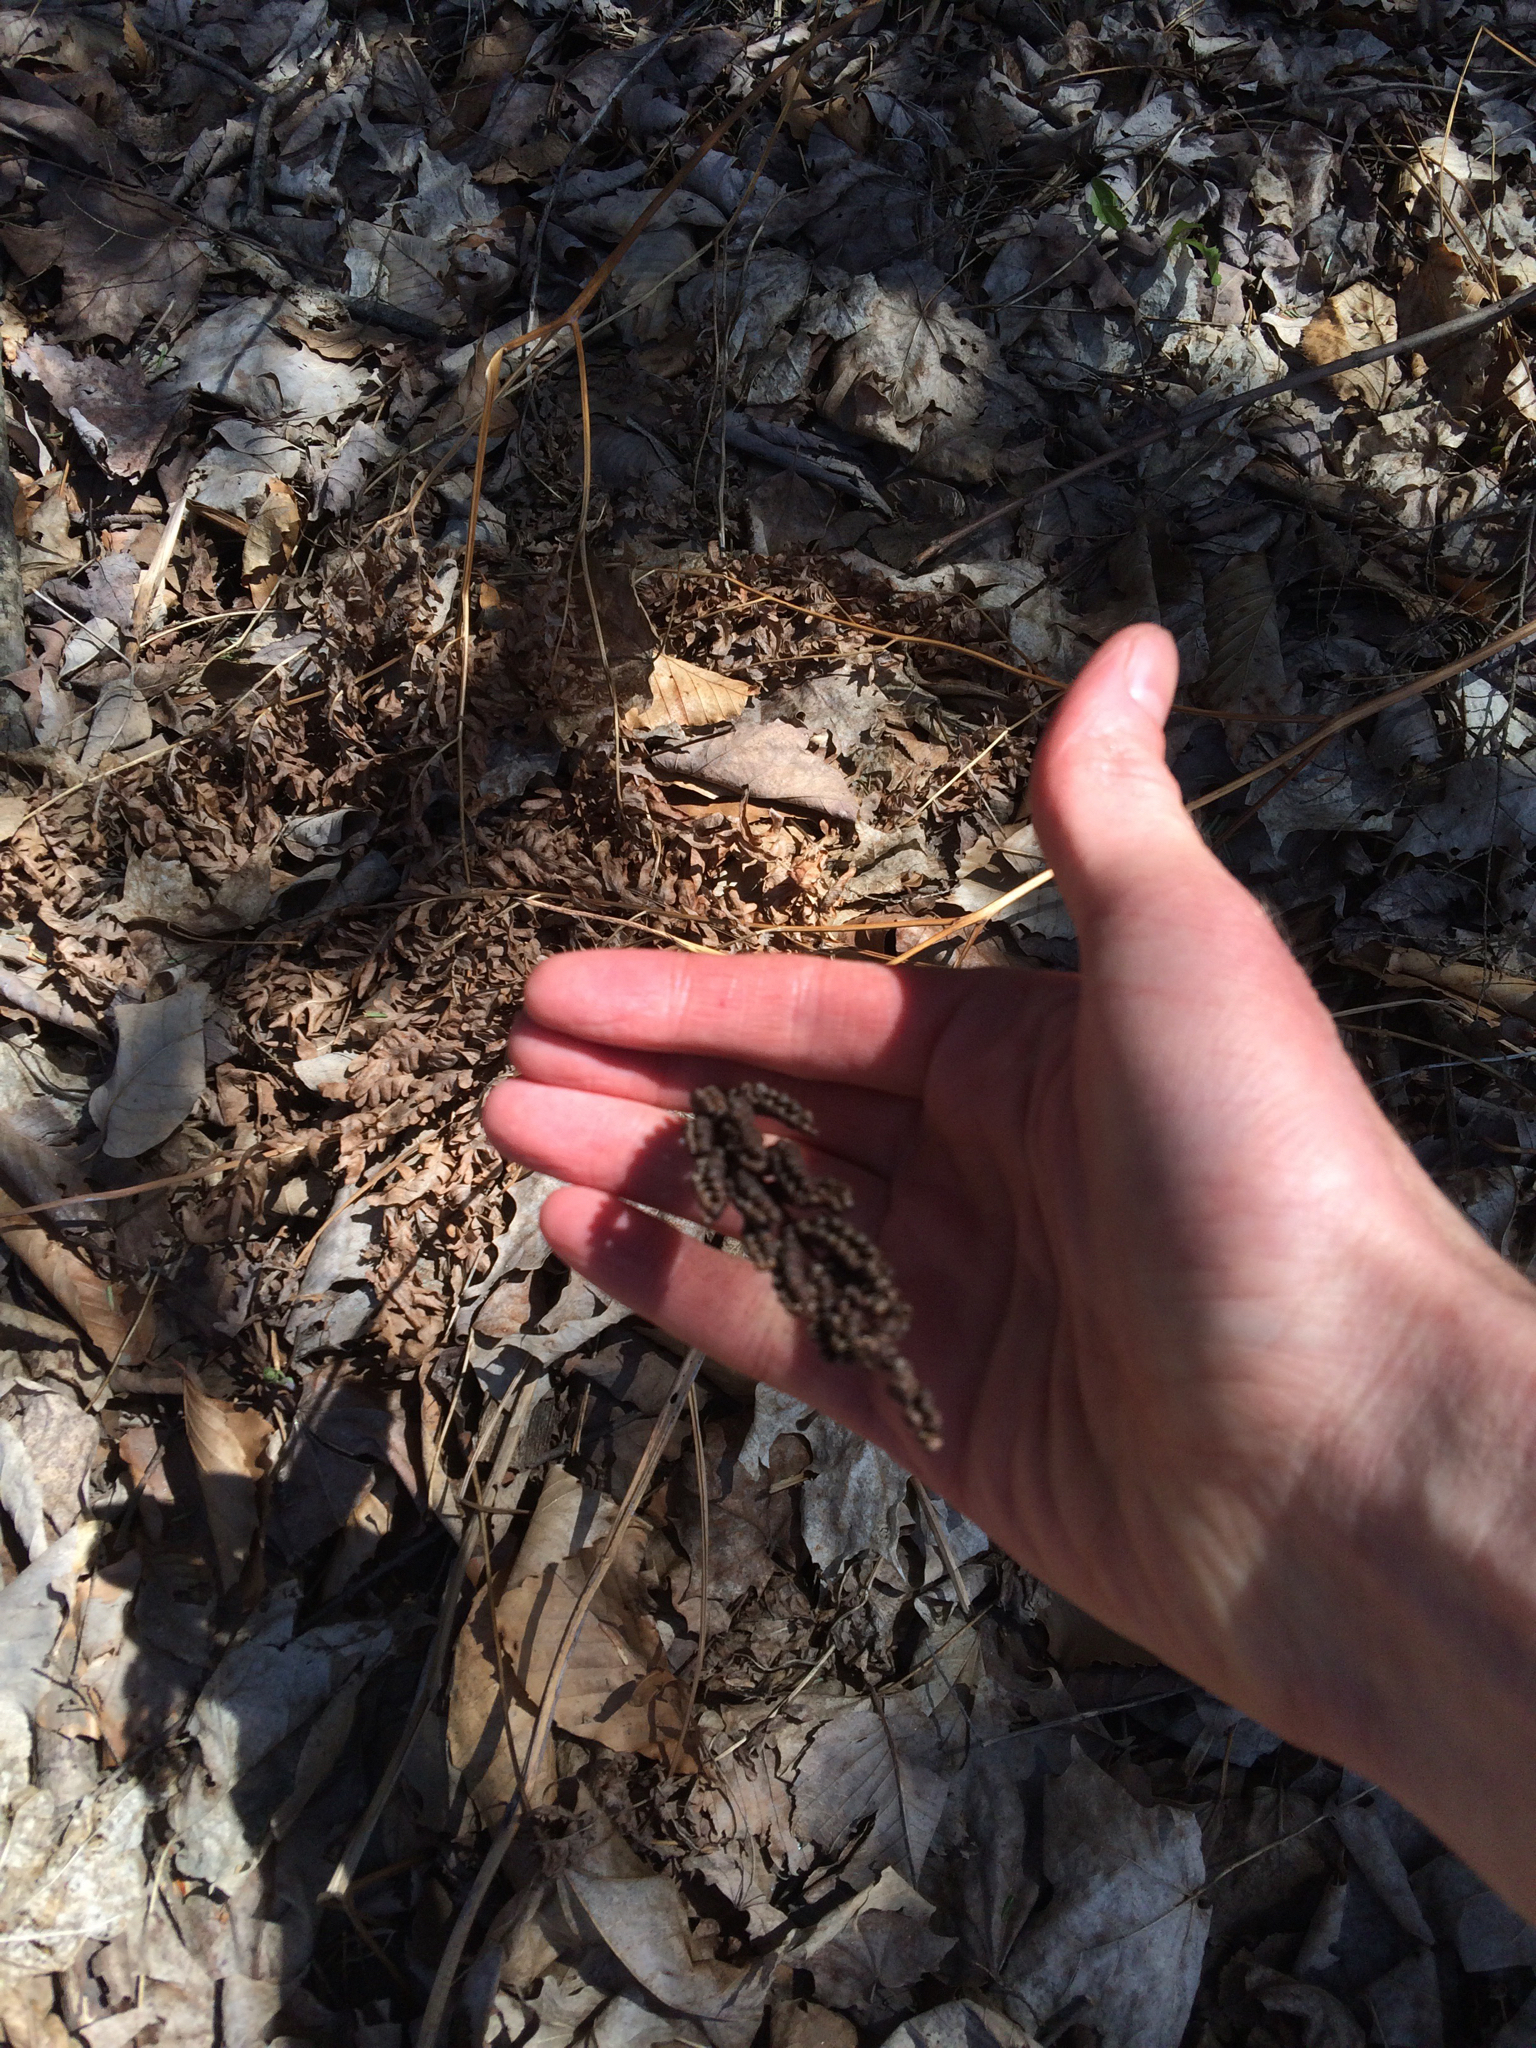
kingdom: Plantae
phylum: Tracheophyta
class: Polypodiopsida
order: Polypodiales
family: Onocleaceae
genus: Onoclea
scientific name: Onoclea sensibilis
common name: Sensitive fern
